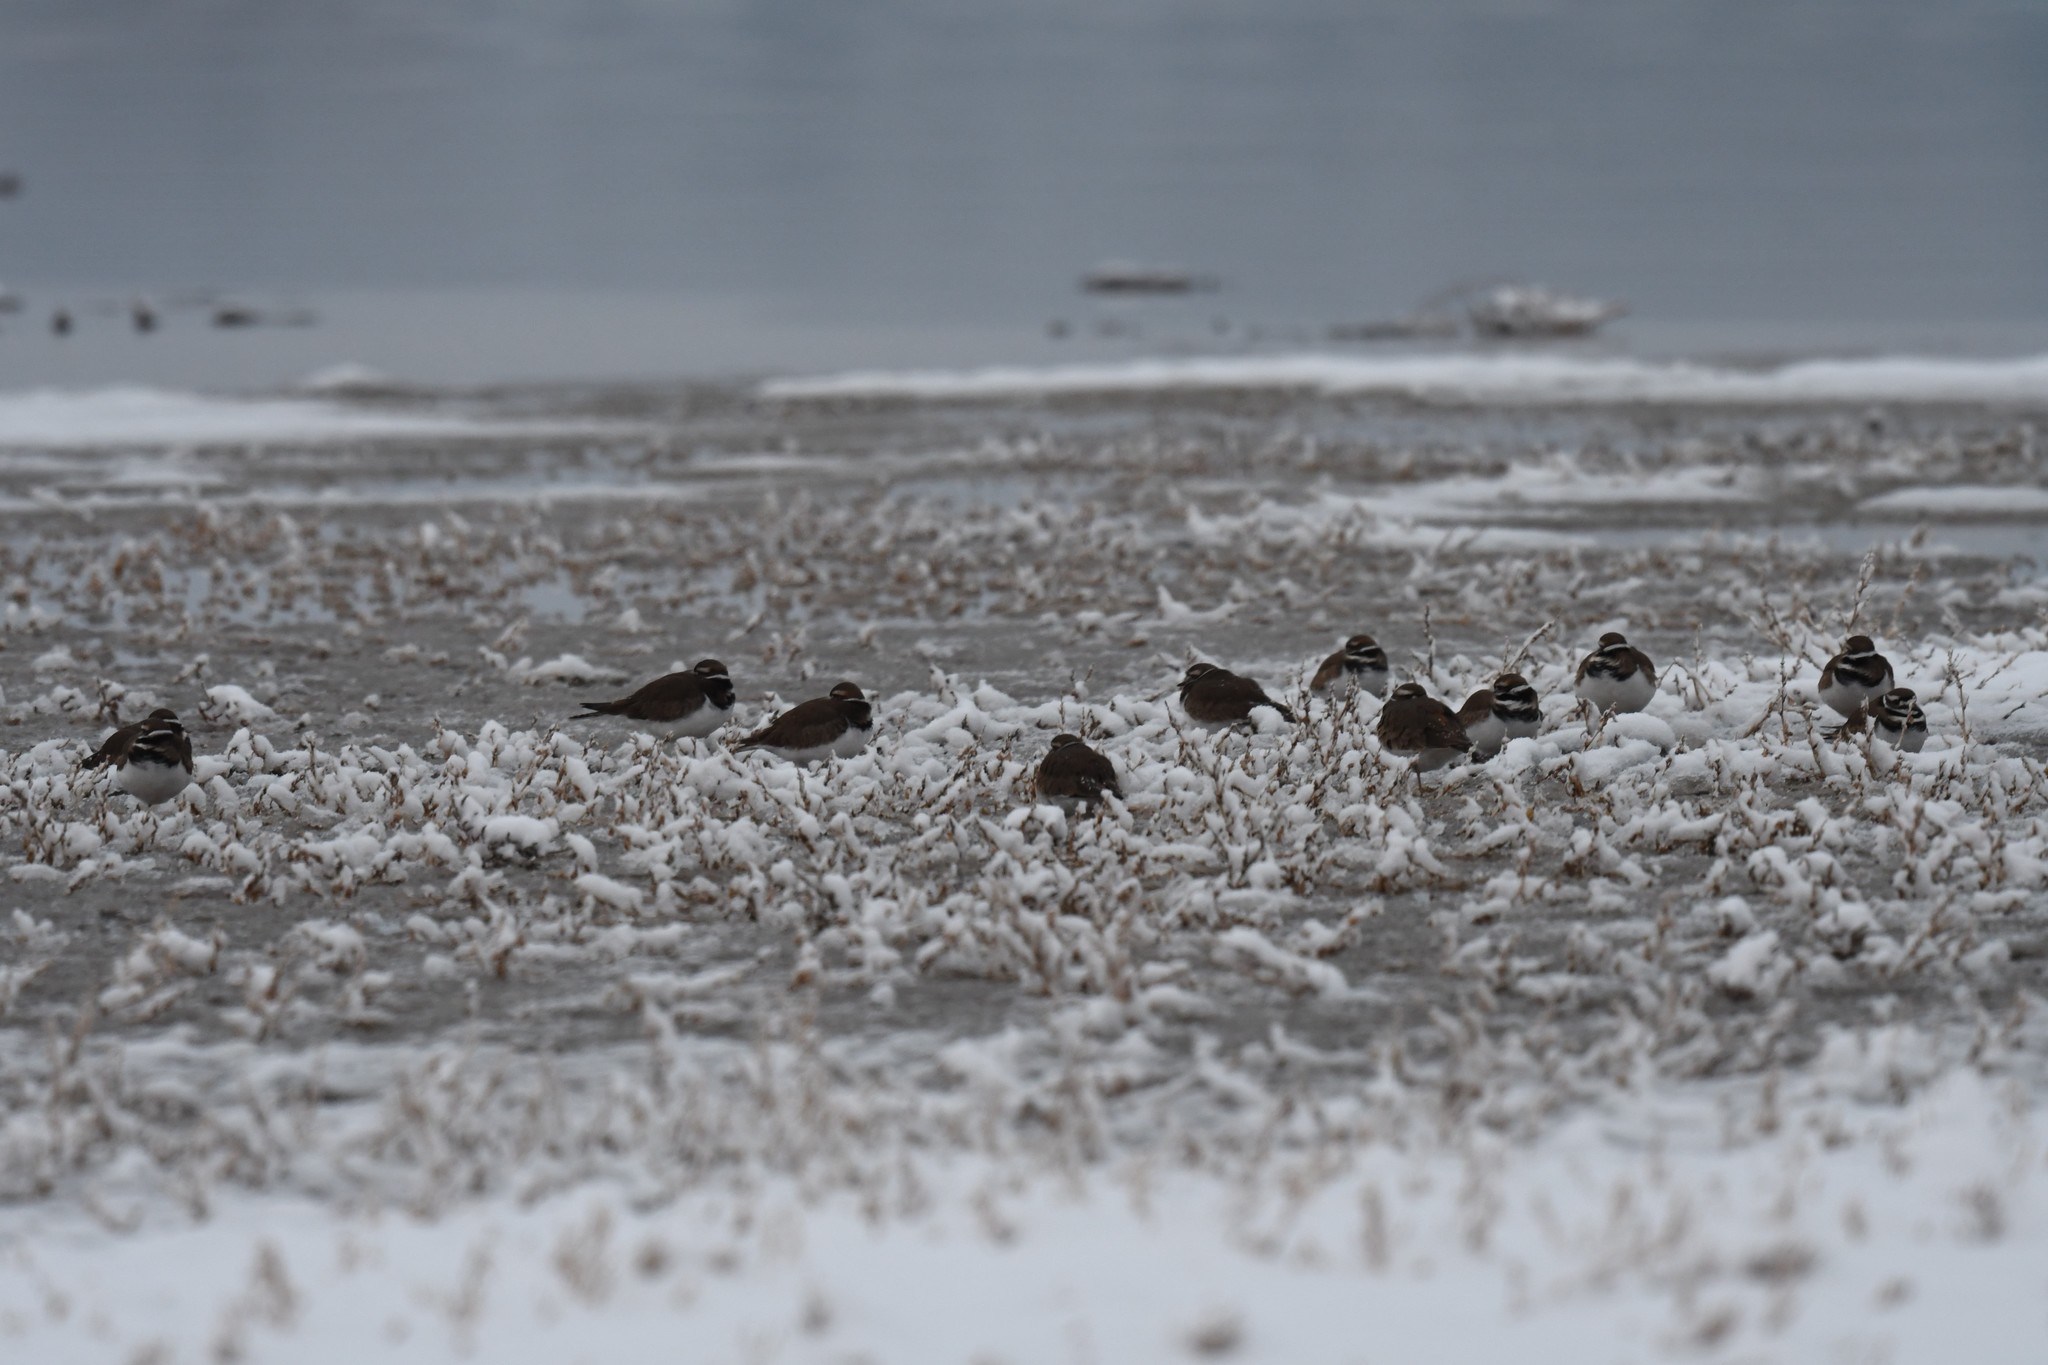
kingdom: Animalia
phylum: Chordata
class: Aves
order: Charadriiformes
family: Charadriidae
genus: Charadrius
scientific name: Charadrius vociferus
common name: Killdeer
